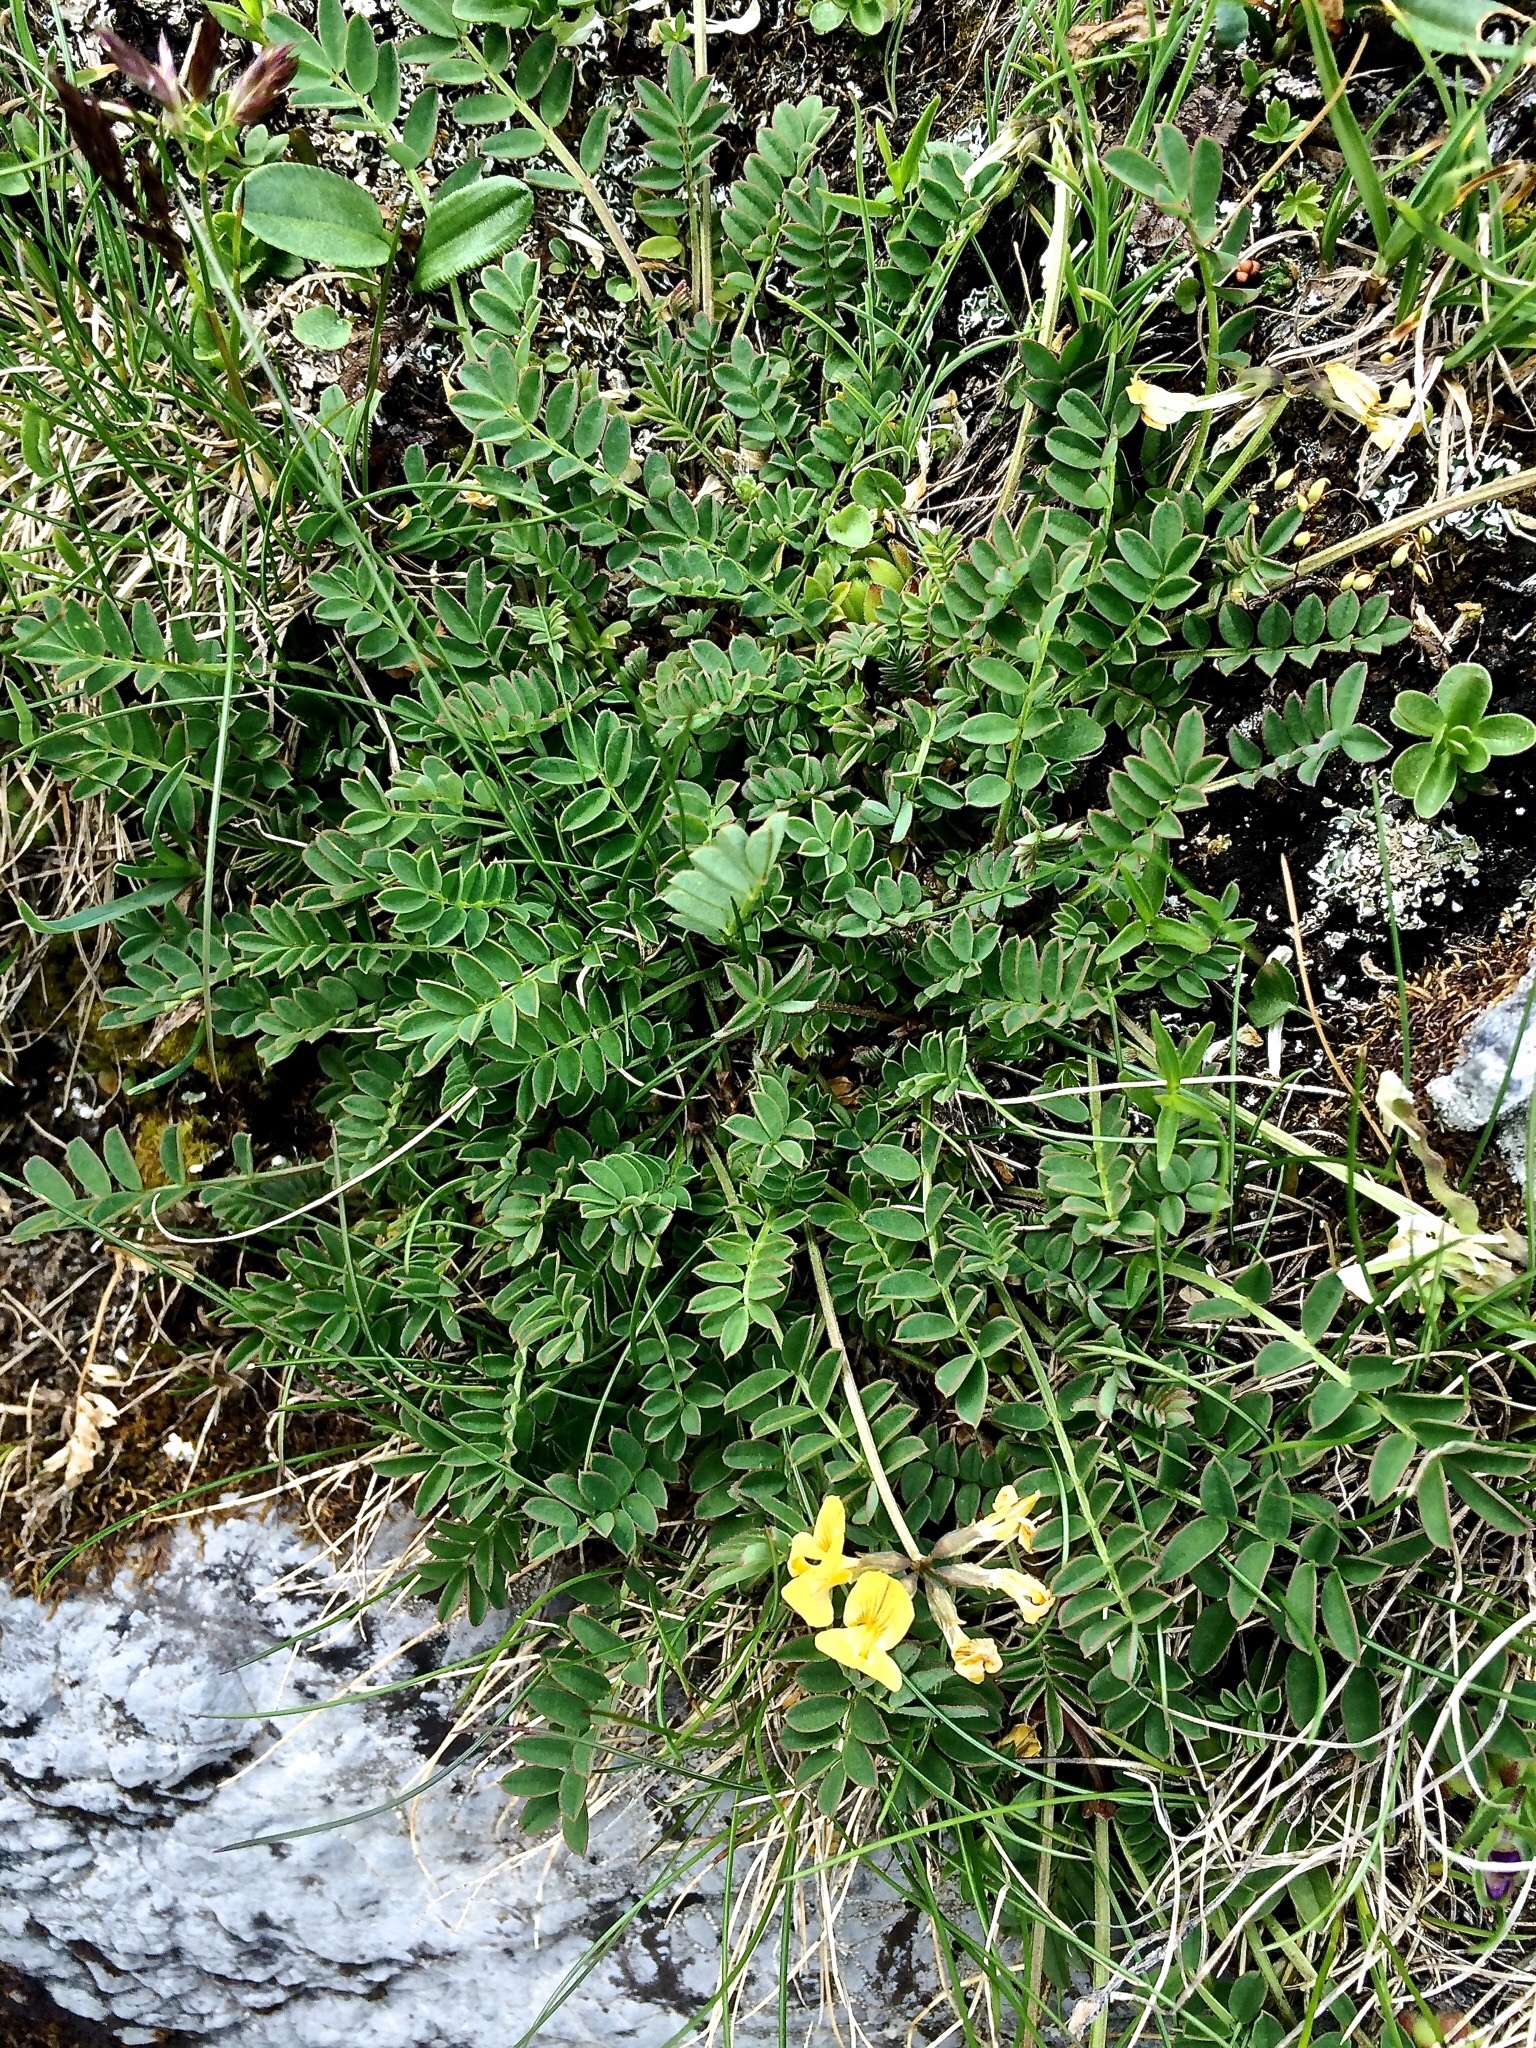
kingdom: Plantae
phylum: Tracheophyta
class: Magnoliopsida
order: Fabales
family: Fabaceae
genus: Hippocrepis
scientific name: Hippocrepis comosa
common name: Horseshoe vetch
